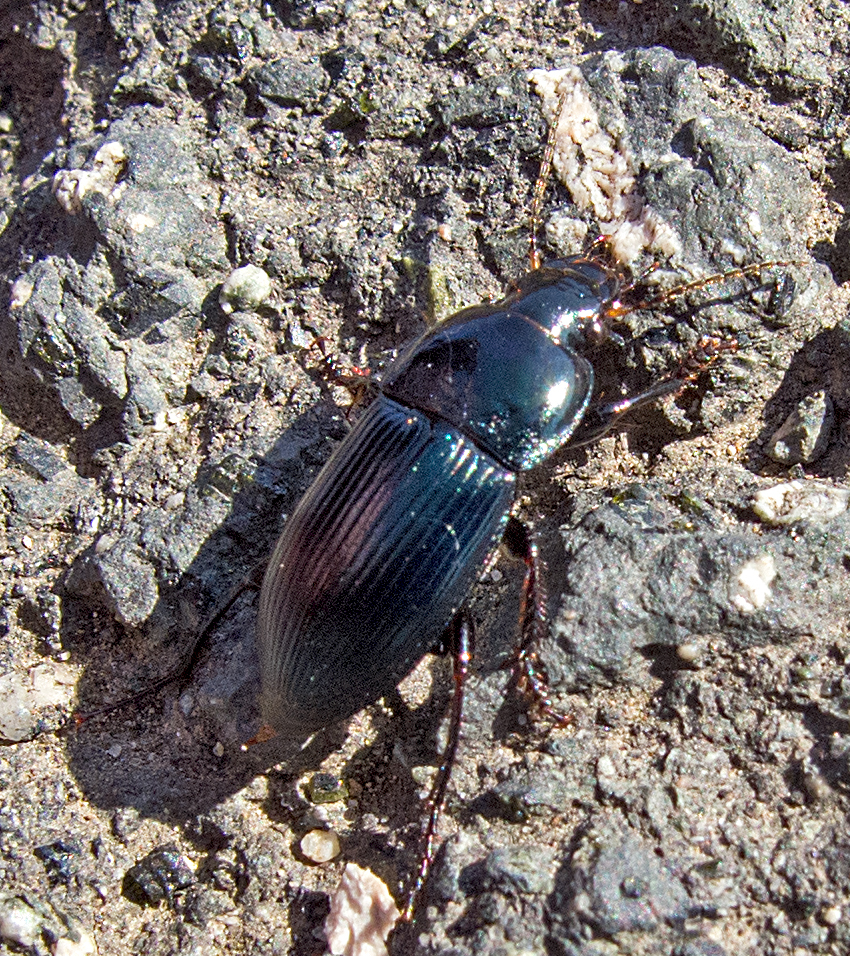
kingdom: Animalia
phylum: Arthropoda
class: Insecta
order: Coleoptera
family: Carabidae
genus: Harpalus
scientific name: Harpalus caspius
